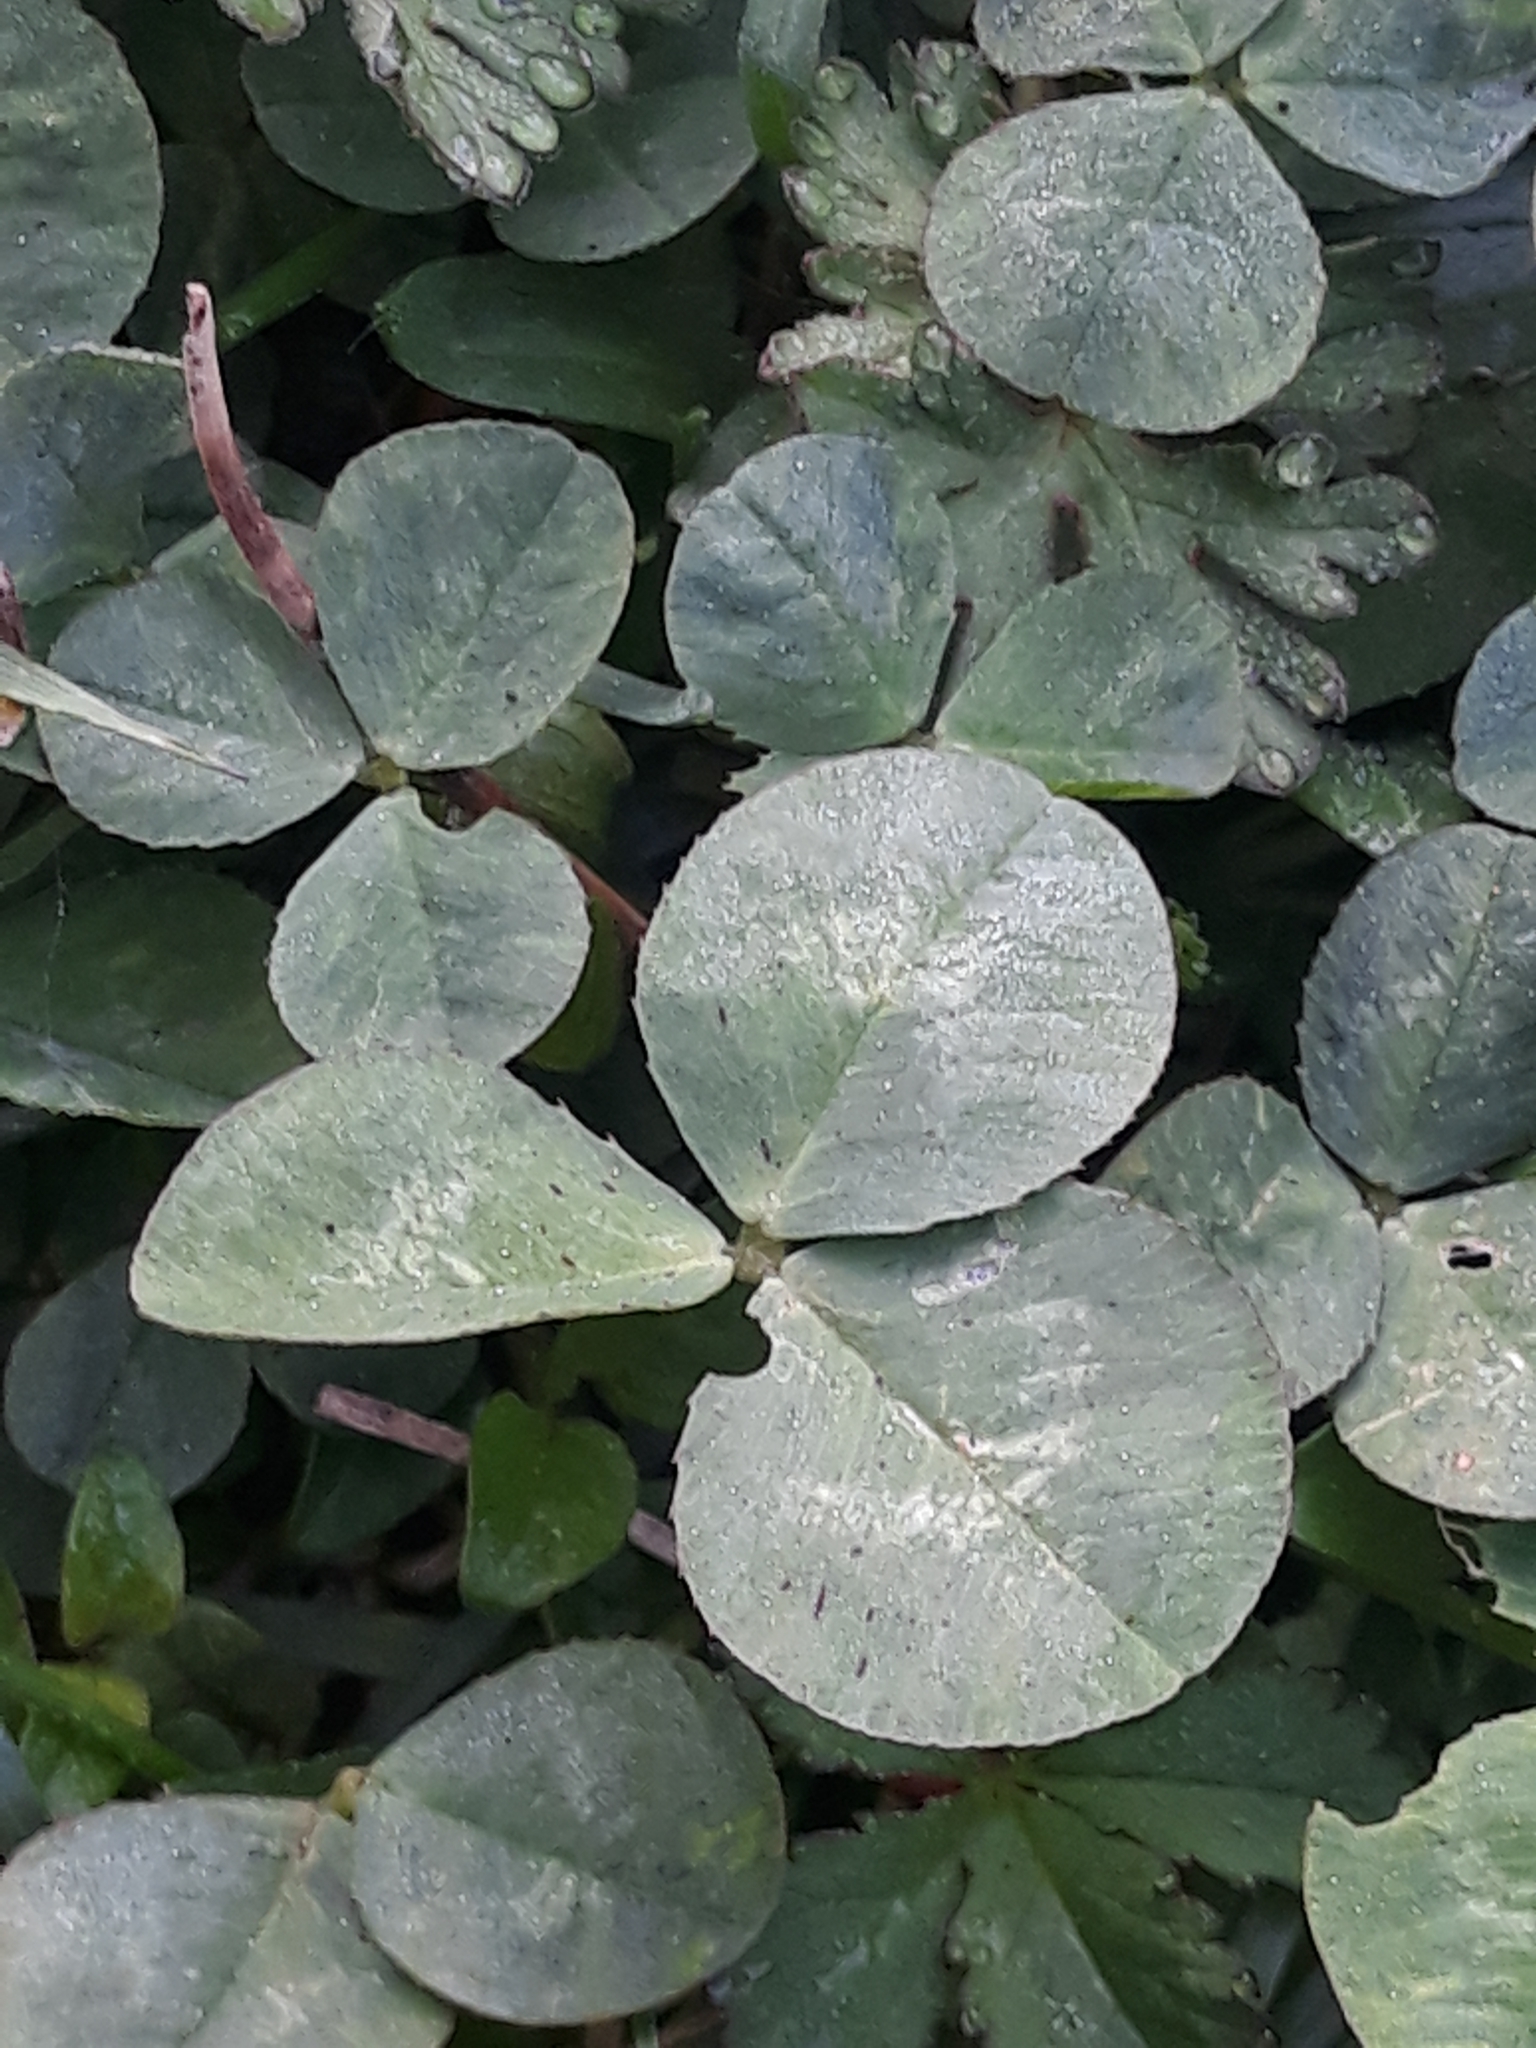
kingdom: Plantae
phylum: Tracheophyta
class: Magnoliopsida
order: Fabales
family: Fabaceae
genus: Trifolium
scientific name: Trifolium repens
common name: White clover
